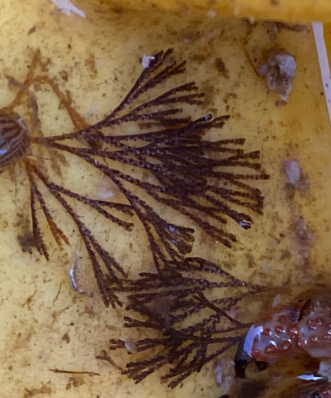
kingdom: Animalia
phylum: Bryozoa
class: Gymnolaemata
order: Cheilostomatida
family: Bugulidae
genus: Bugula
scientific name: Bugula neritina
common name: Brown bryozoan
